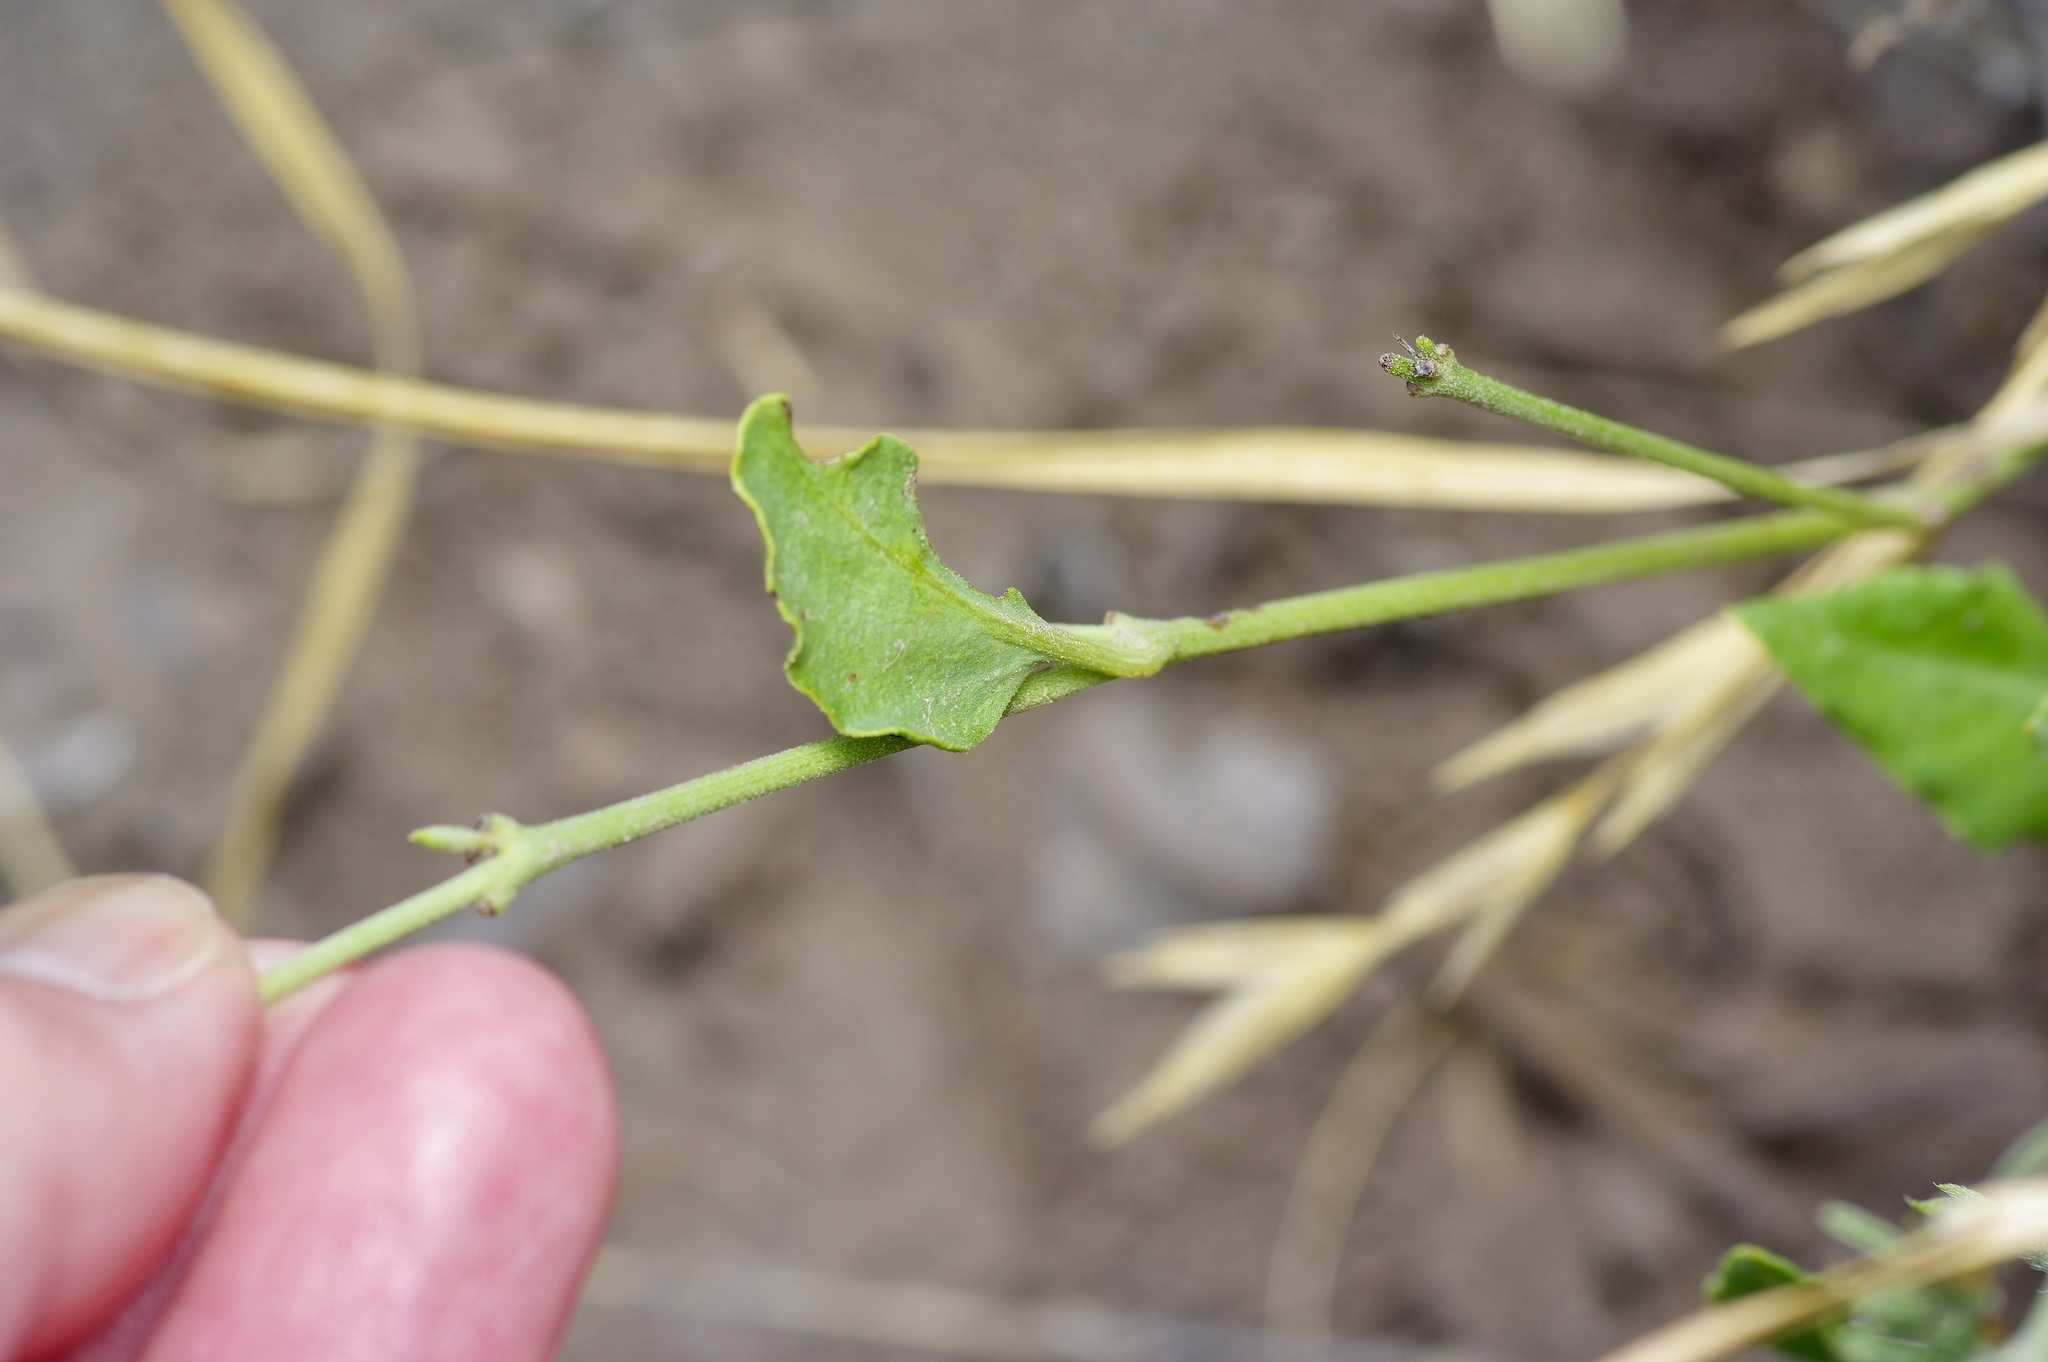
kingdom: Plantae
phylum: Tracheophyta
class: Magnoliopsida
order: Caryophyllales
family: Nyctaginaceae
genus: Acleisanthes
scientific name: Acleisanthes longiflora
